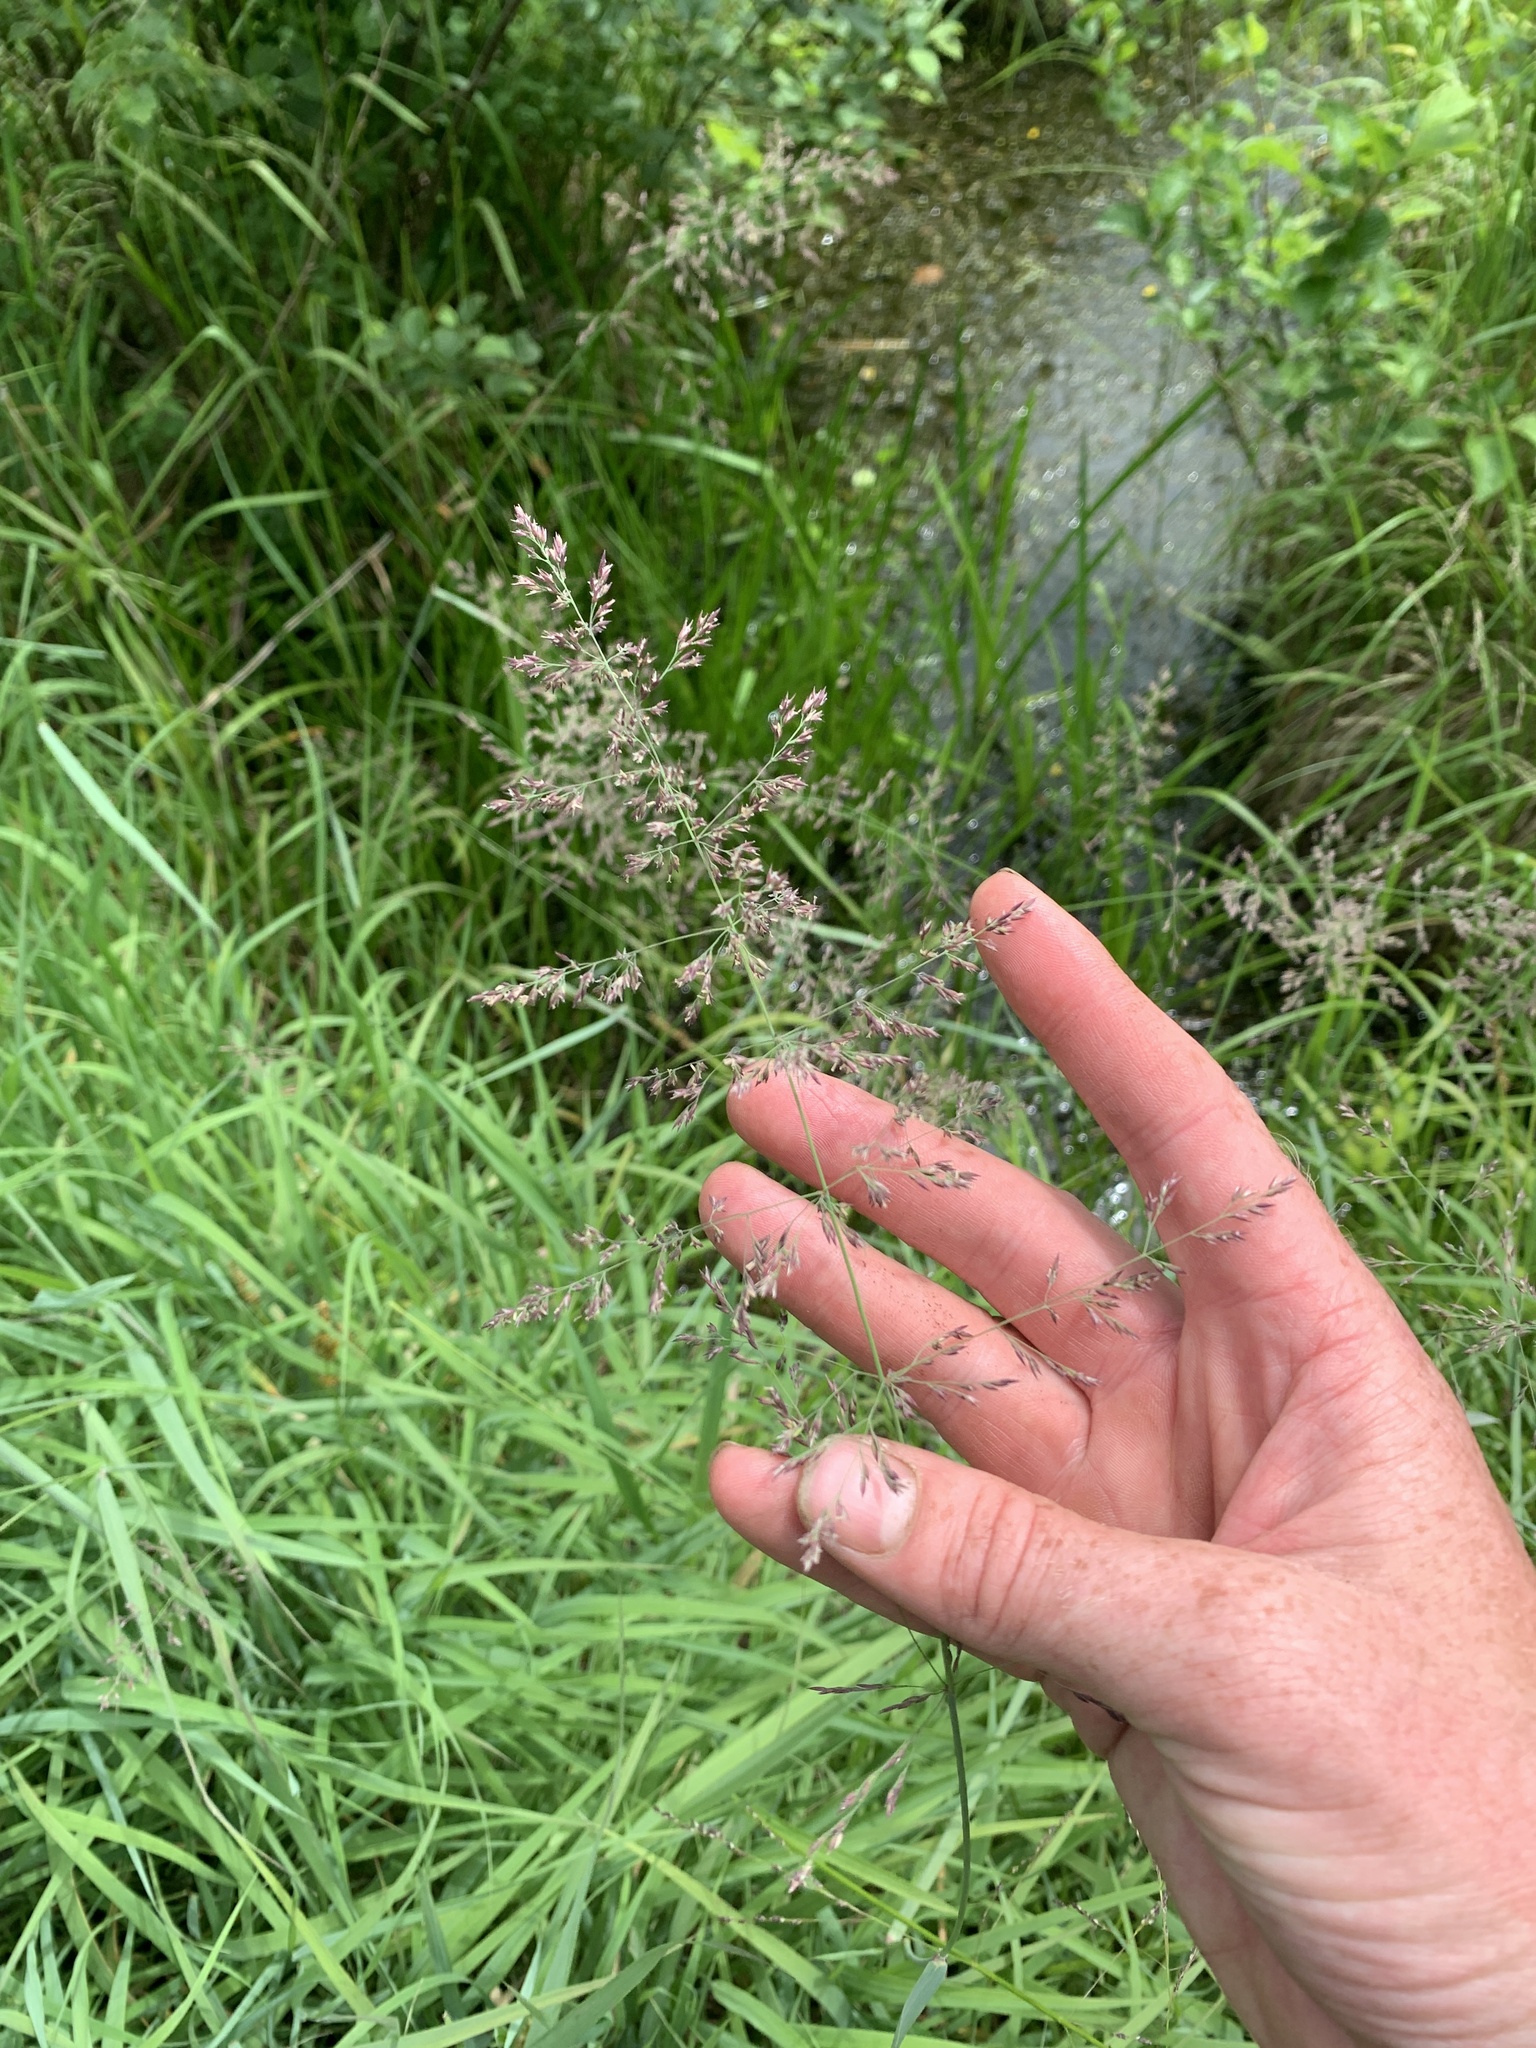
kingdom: Plantae
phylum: Tracheophyta
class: Liliopsida
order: Poales
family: Poaceae
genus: Calamagrostis
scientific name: Calamagrostis canadensis
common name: Canada bluejoint
